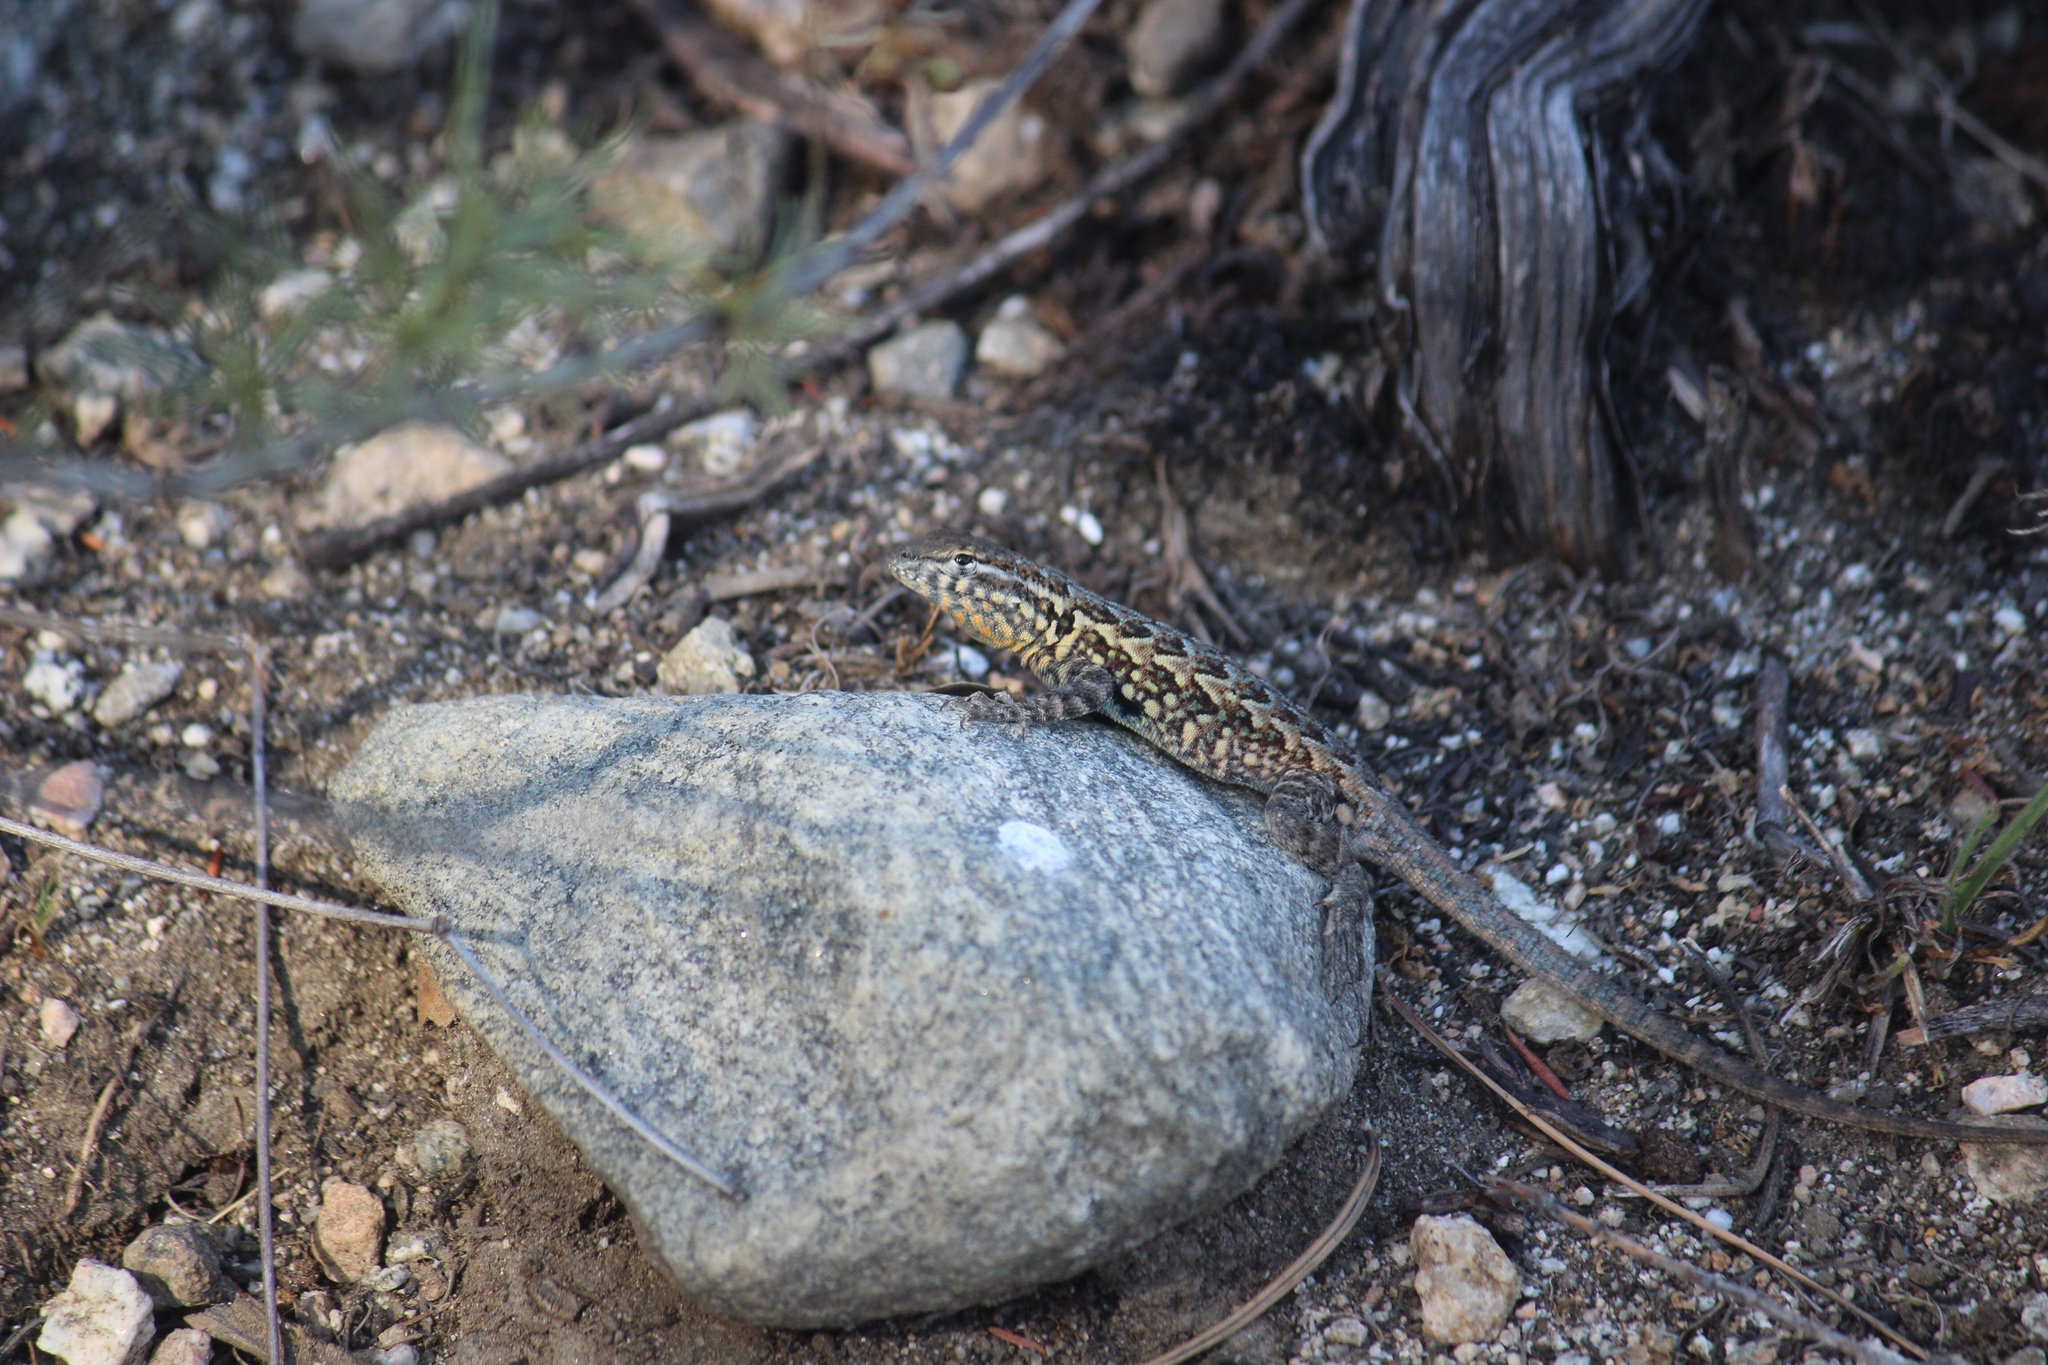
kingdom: Animalia
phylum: Chordata
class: Squamata
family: Phrynosomatidae
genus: Uta
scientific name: Uta stansburiana
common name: Side-blotched lizard
